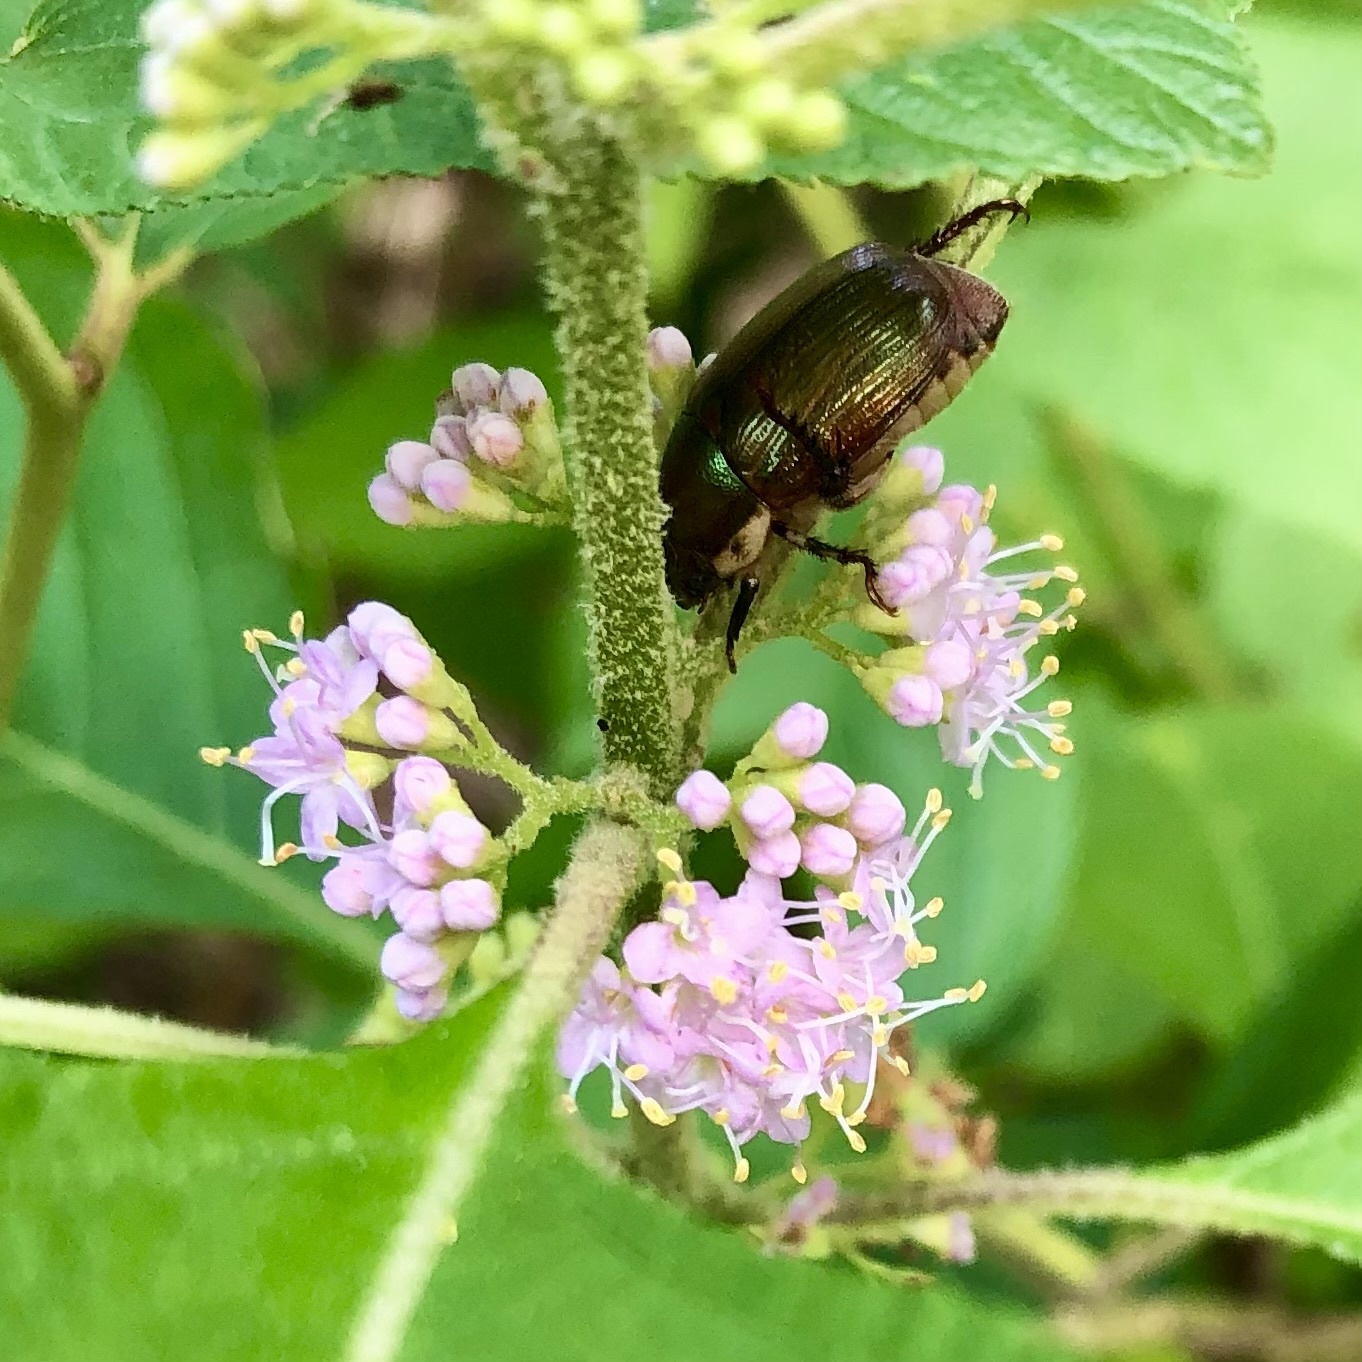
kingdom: Animalia
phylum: Arthropoda
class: Insecta
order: Coleoptera
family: Scarabaeidae
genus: Callistethus
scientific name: Callistethus marginatus
